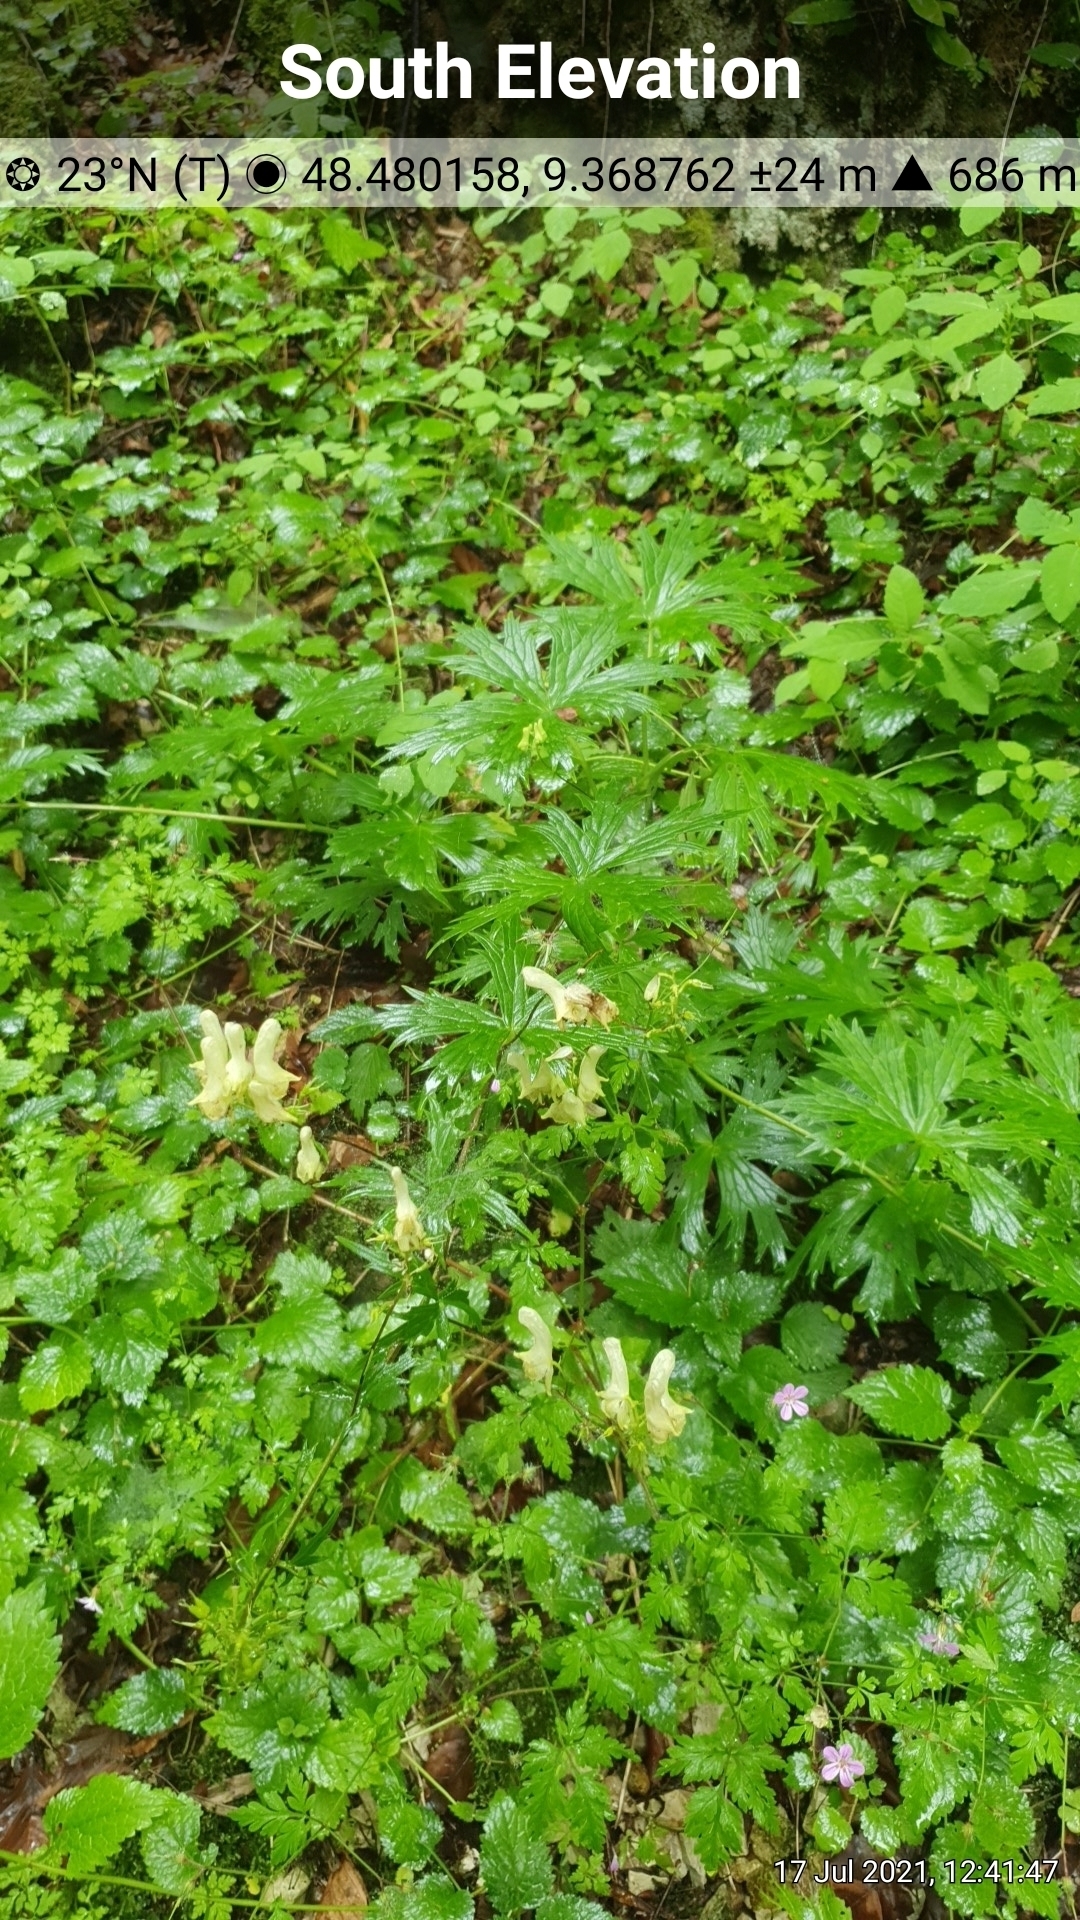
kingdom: Plantae
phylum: Tracheophyta
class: Magnoliopsida
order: Ranunculales
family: Ranunculaceae
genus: Aconitum
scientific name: Aconitum lycoctonum
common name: Wolf's-bane
